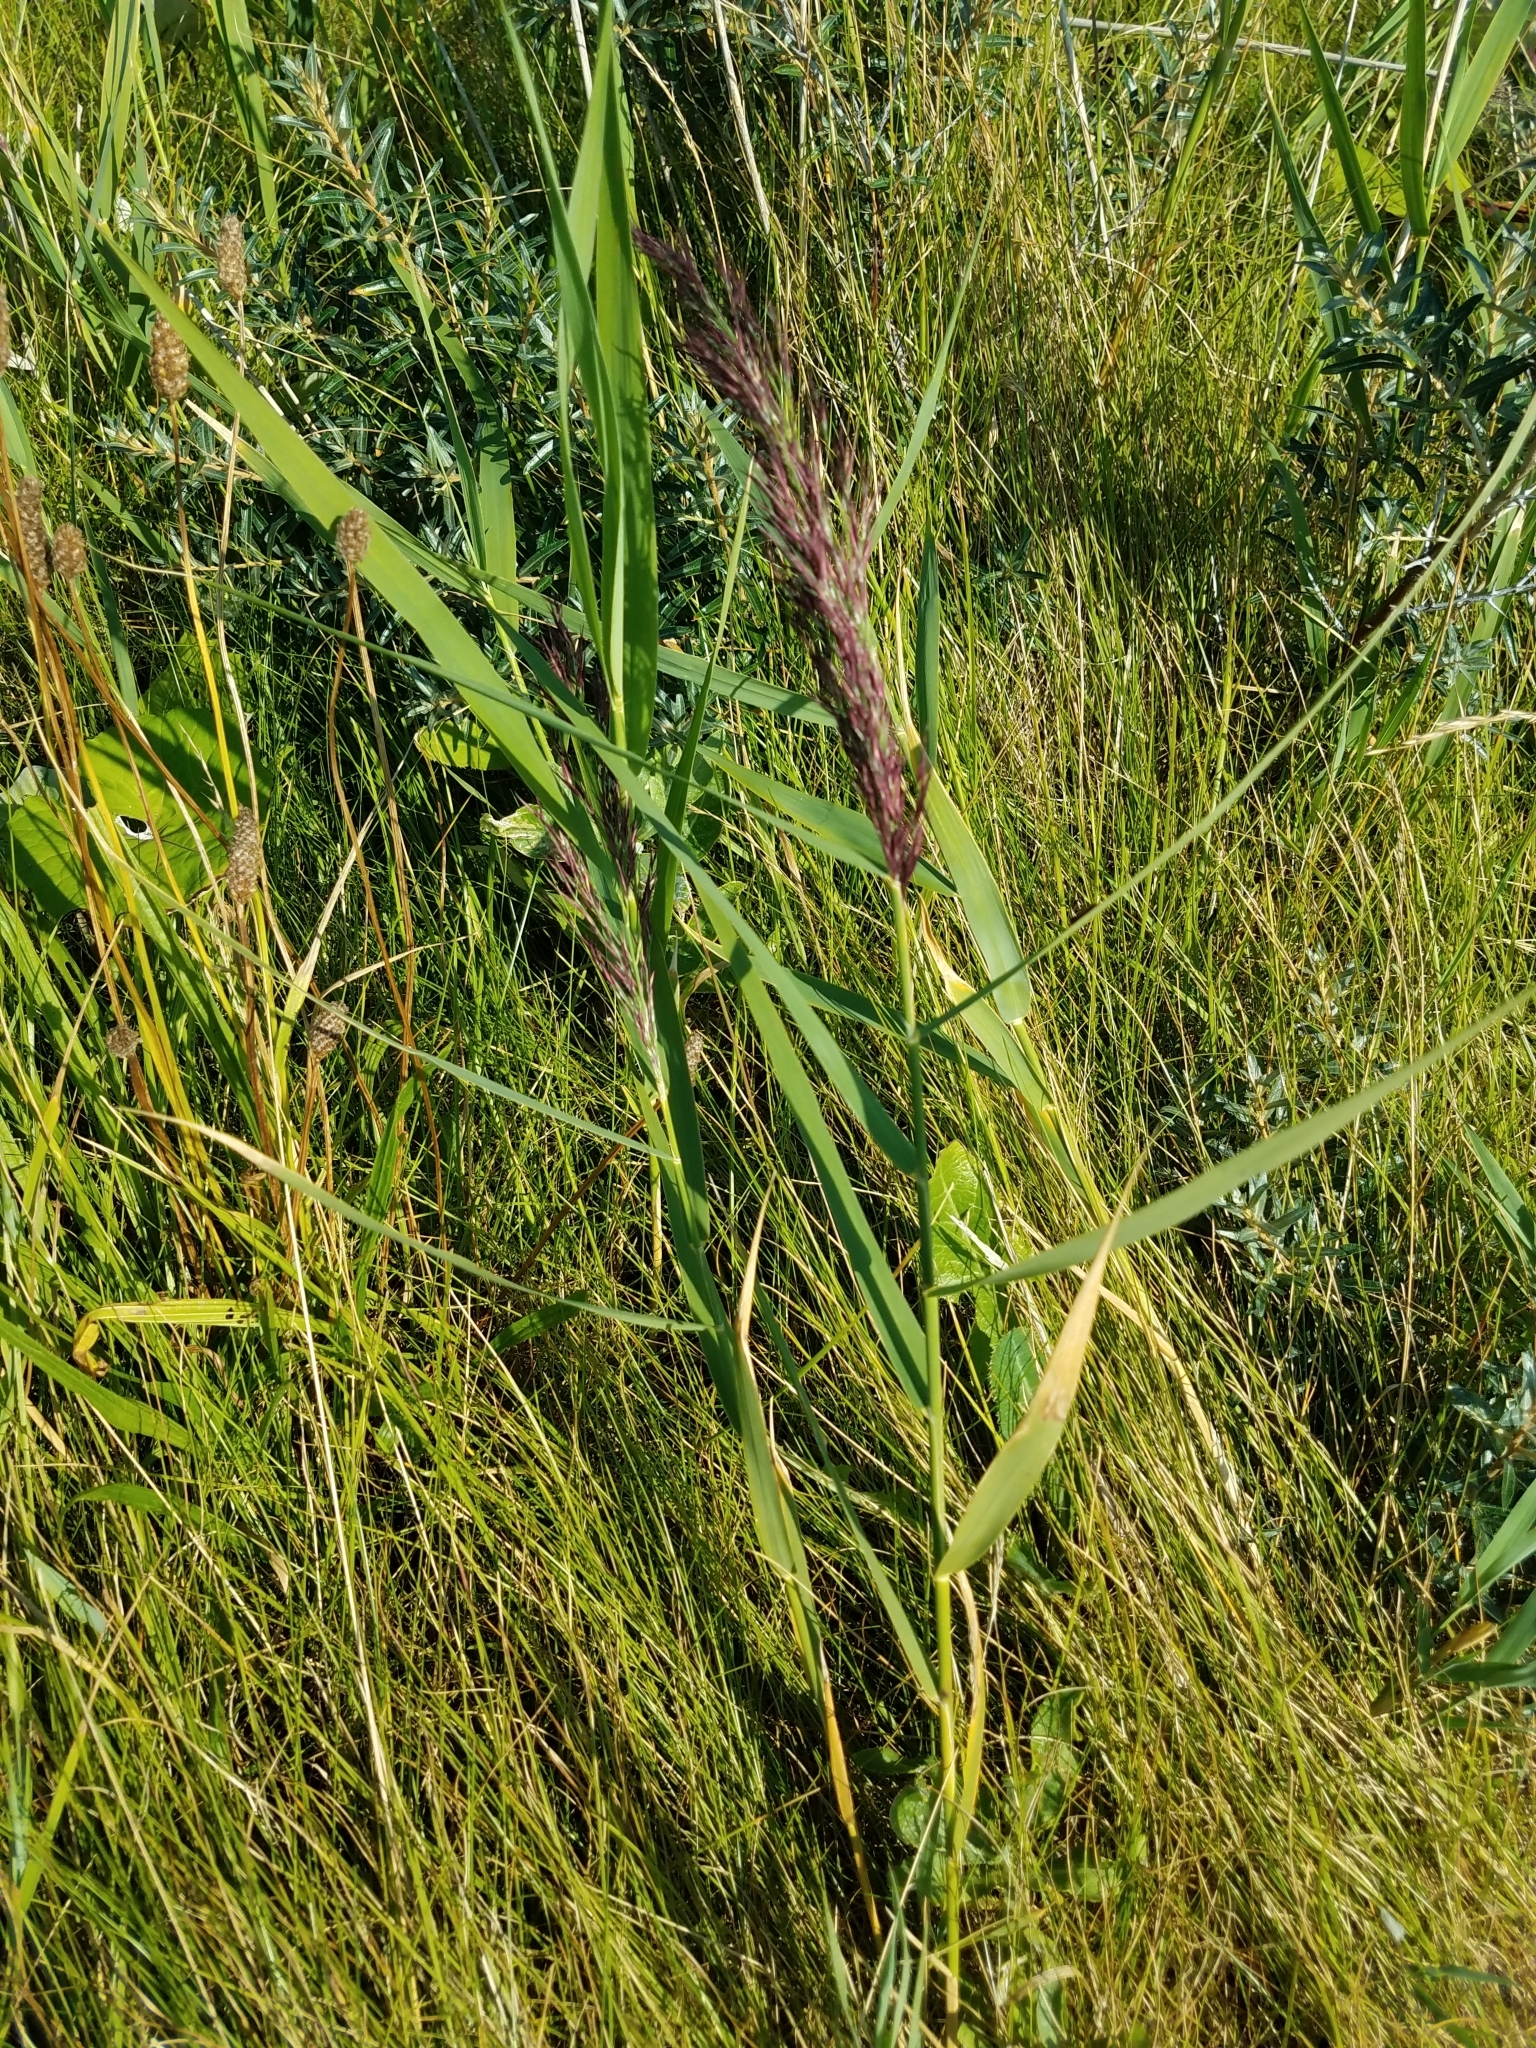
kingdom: Plantae
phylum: Tracheophyta
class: Liliopsida
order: Poales
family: Poaceae
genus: Phragmites
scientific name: Phragmites australis
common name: Common reed
